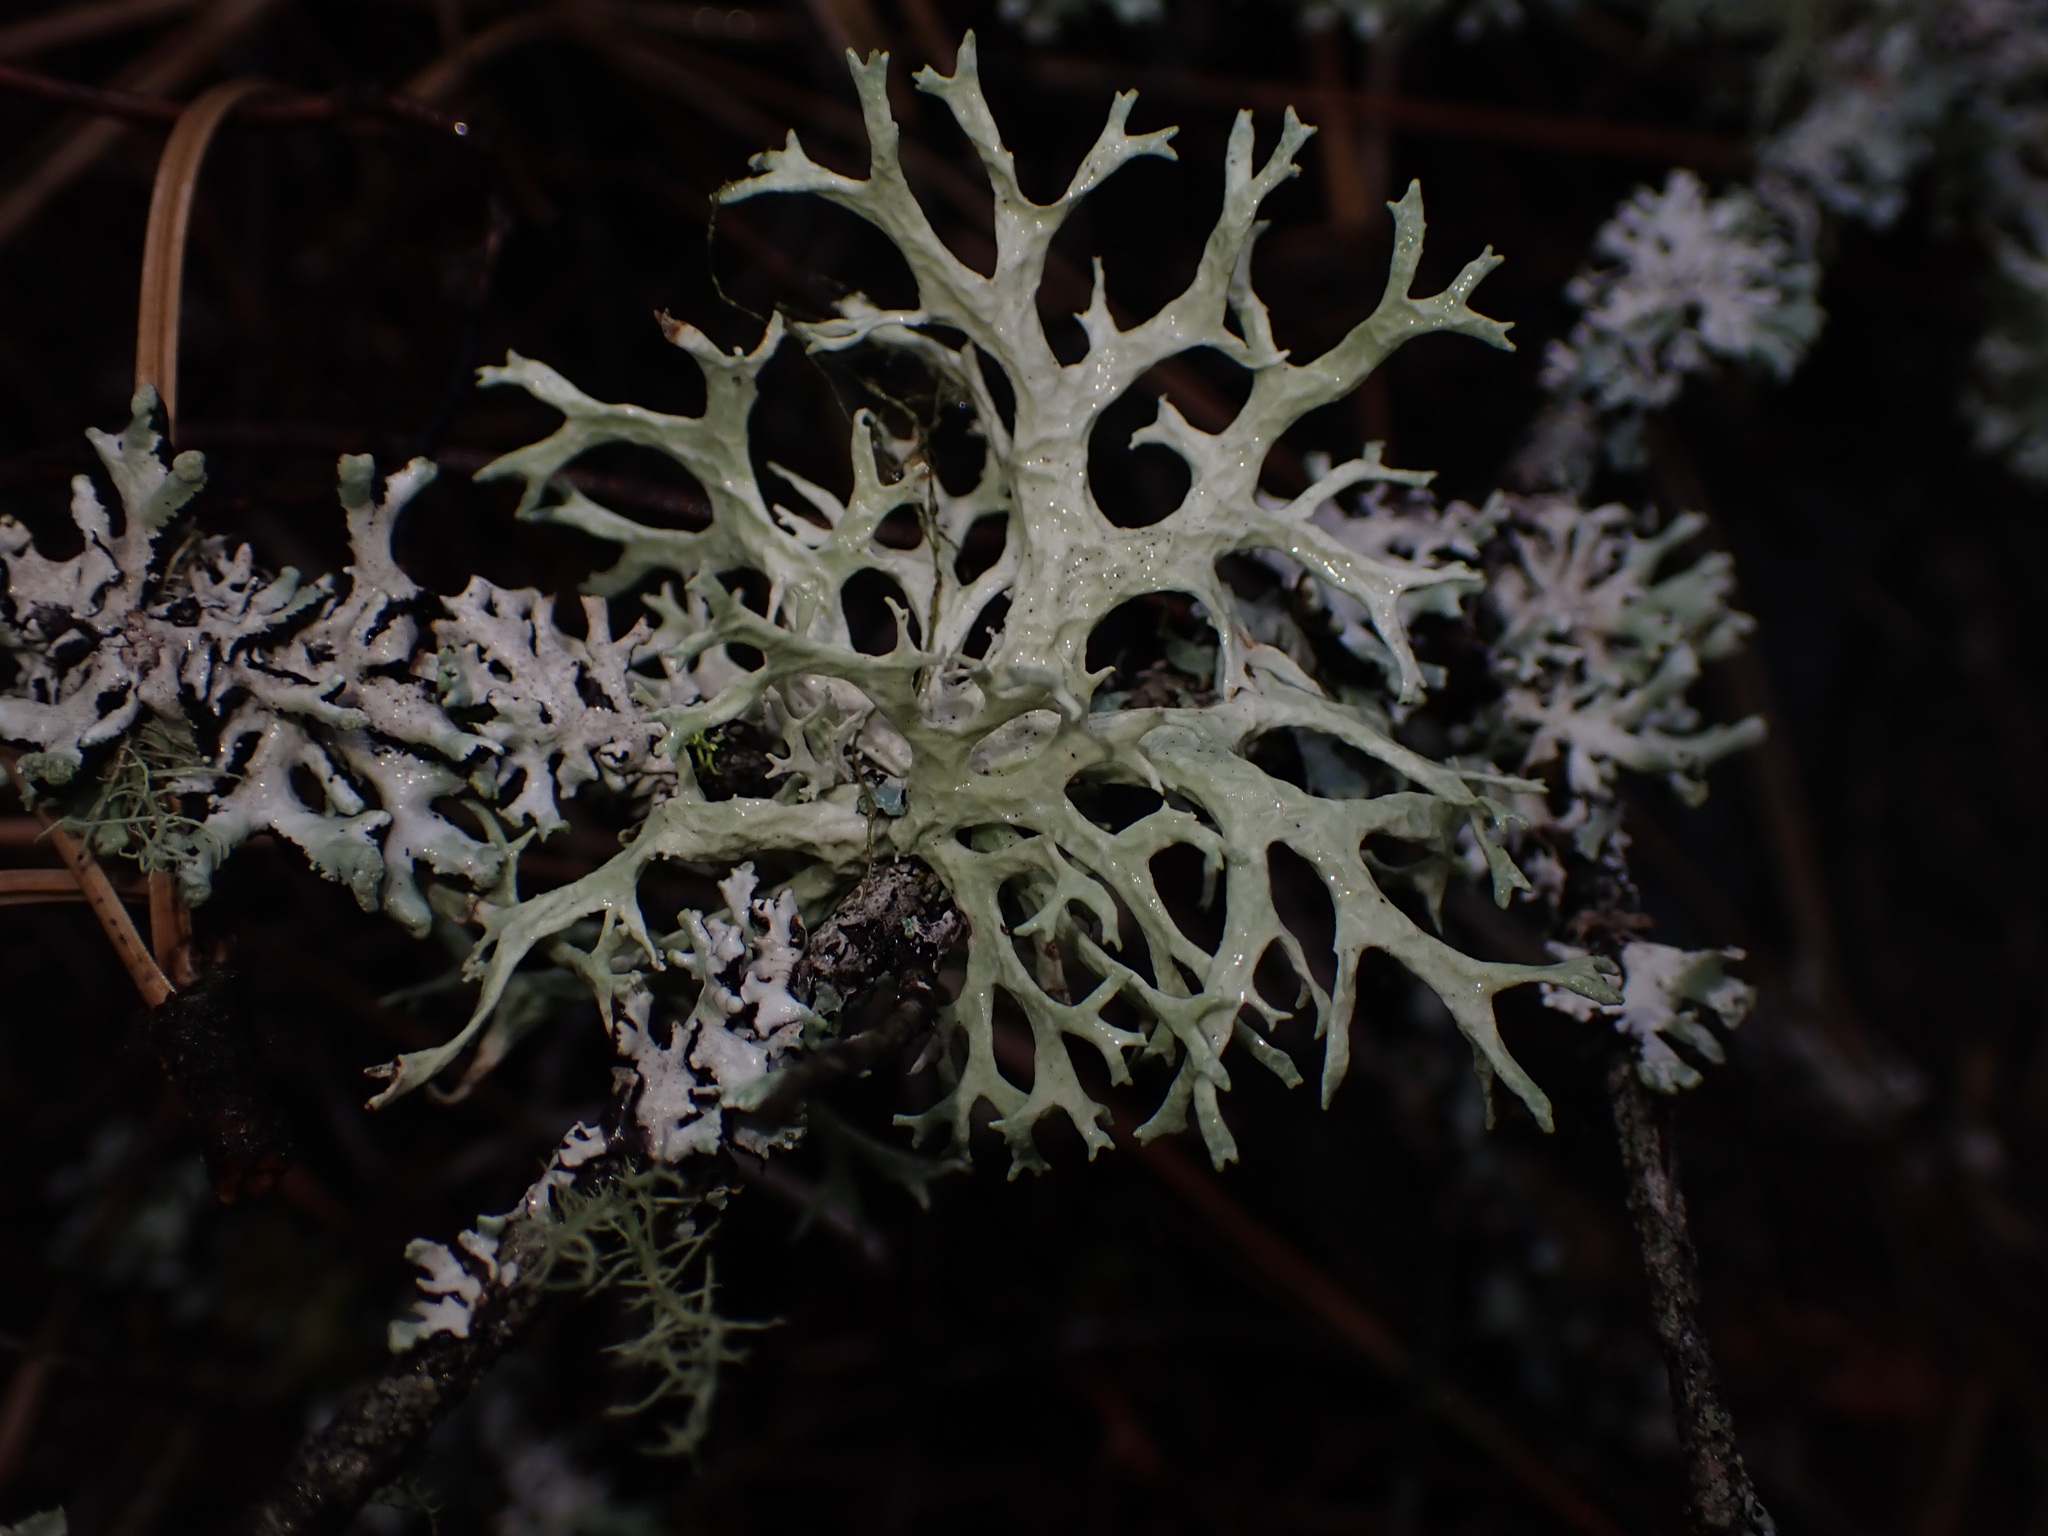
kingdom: Fungi
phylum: Ascomycota
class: Lecanoromycetes
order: Lecanorales
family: Parmeliaceae
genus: Evernia
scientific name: Evernia prunastri
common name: Oak moss
